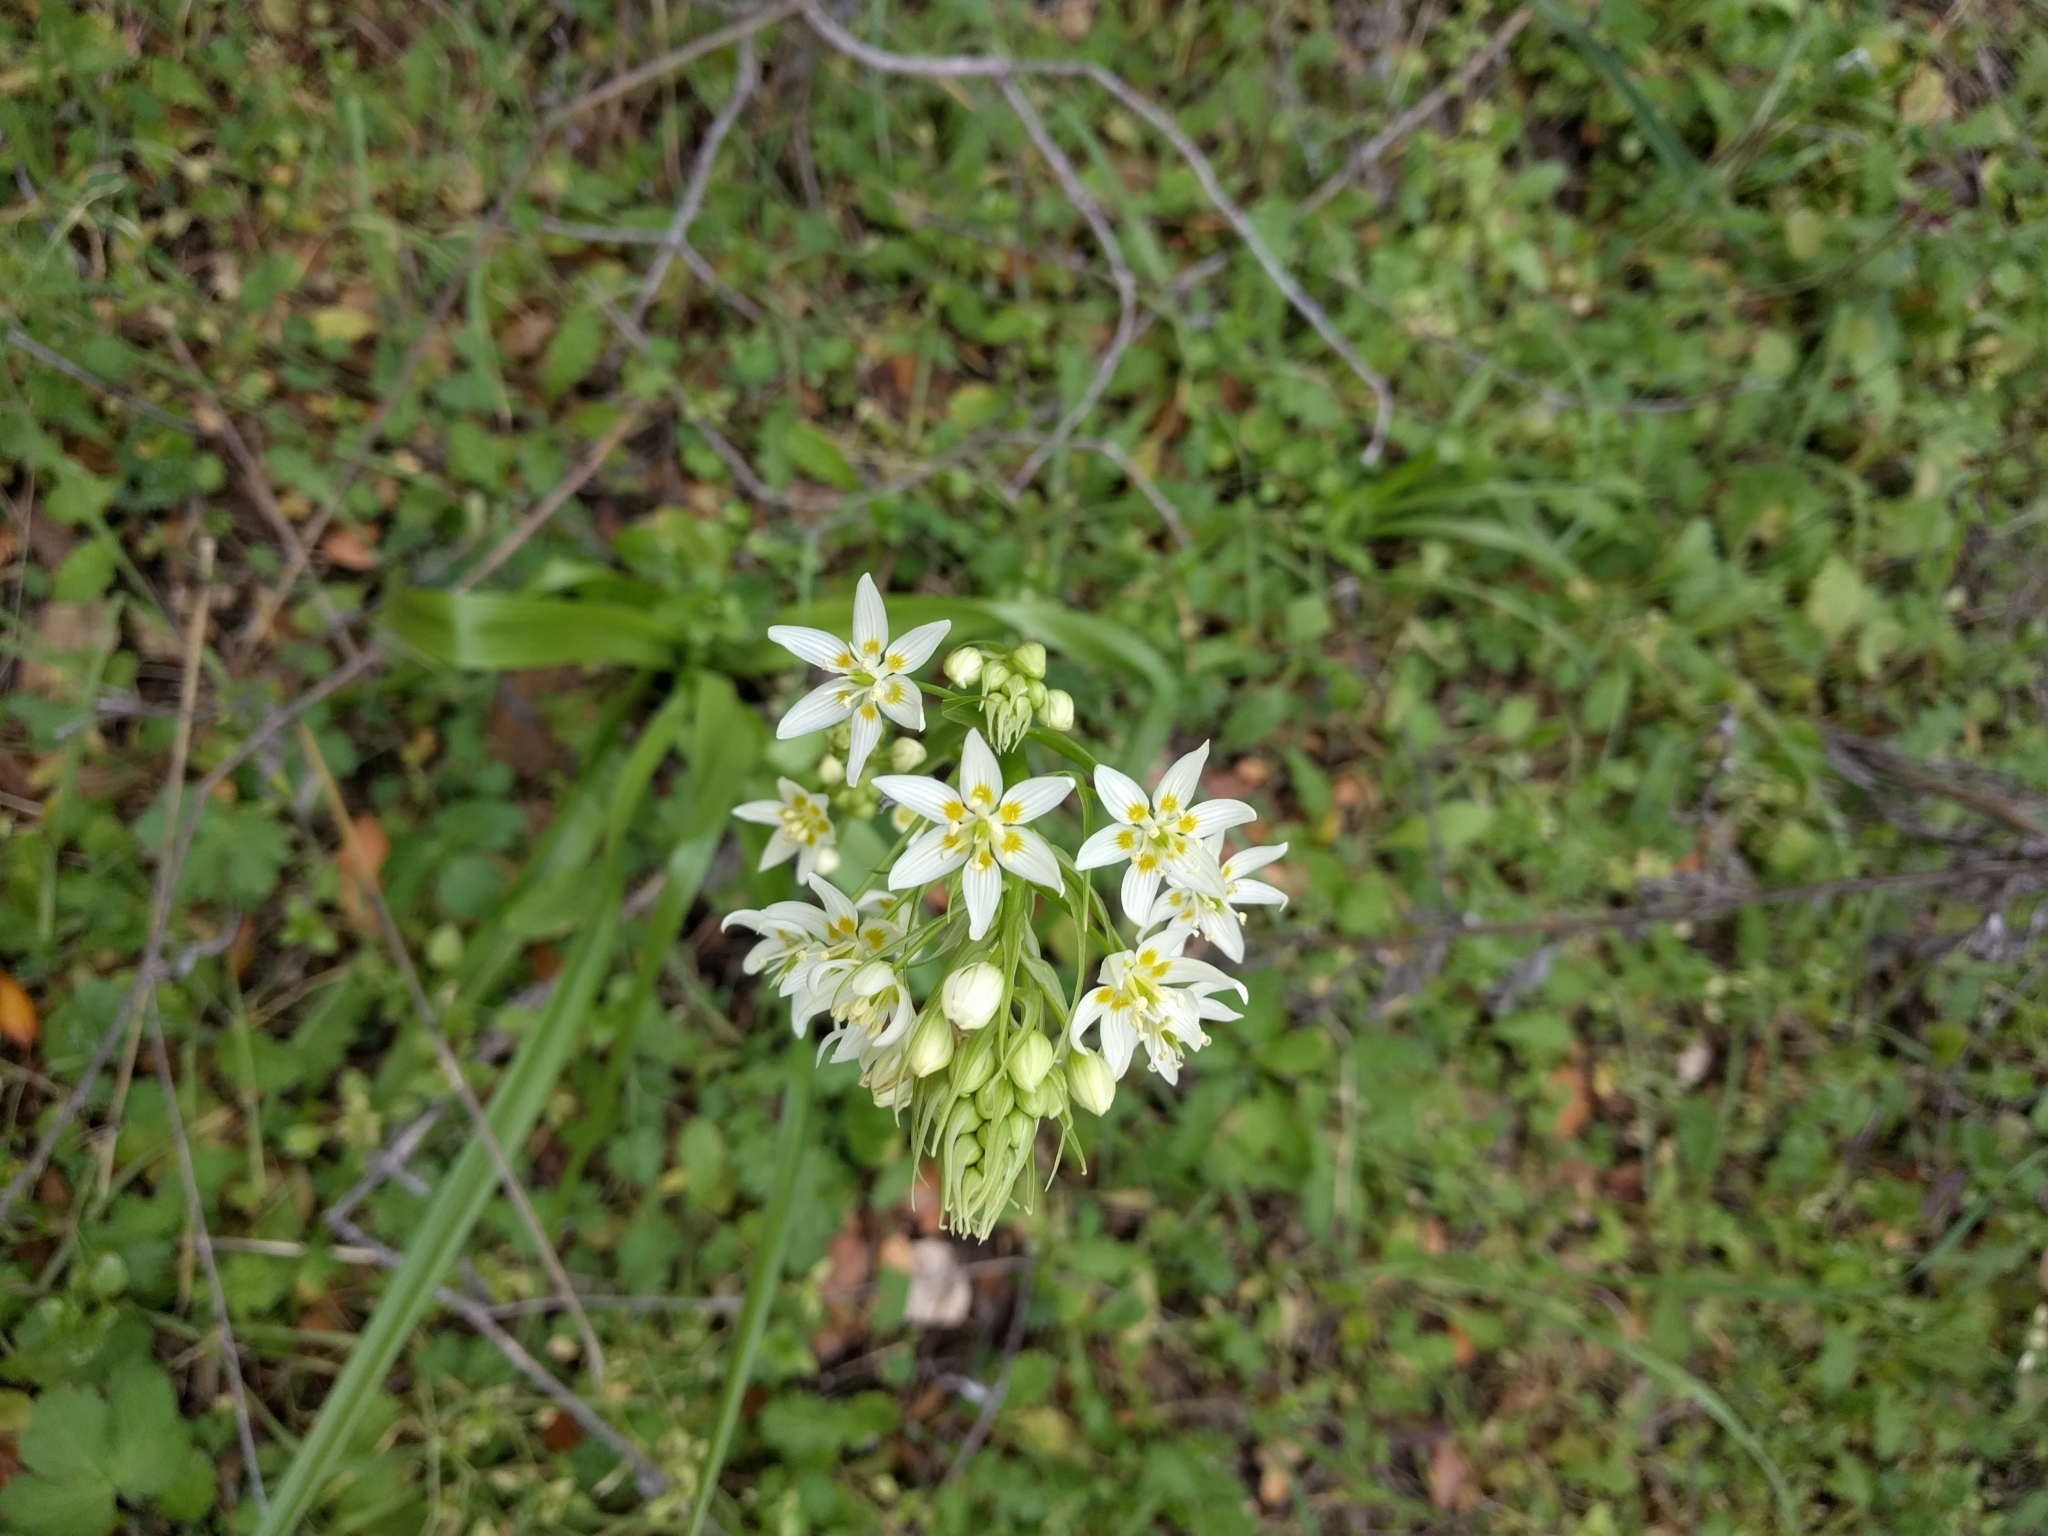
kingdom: Plantae
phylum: Tracheophyta
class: Liliopsida
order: Liliales
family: Melanthiaceae
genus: Toxicoscordion
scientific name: Toxicoscordion fremontii
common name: Fremont's death camas
